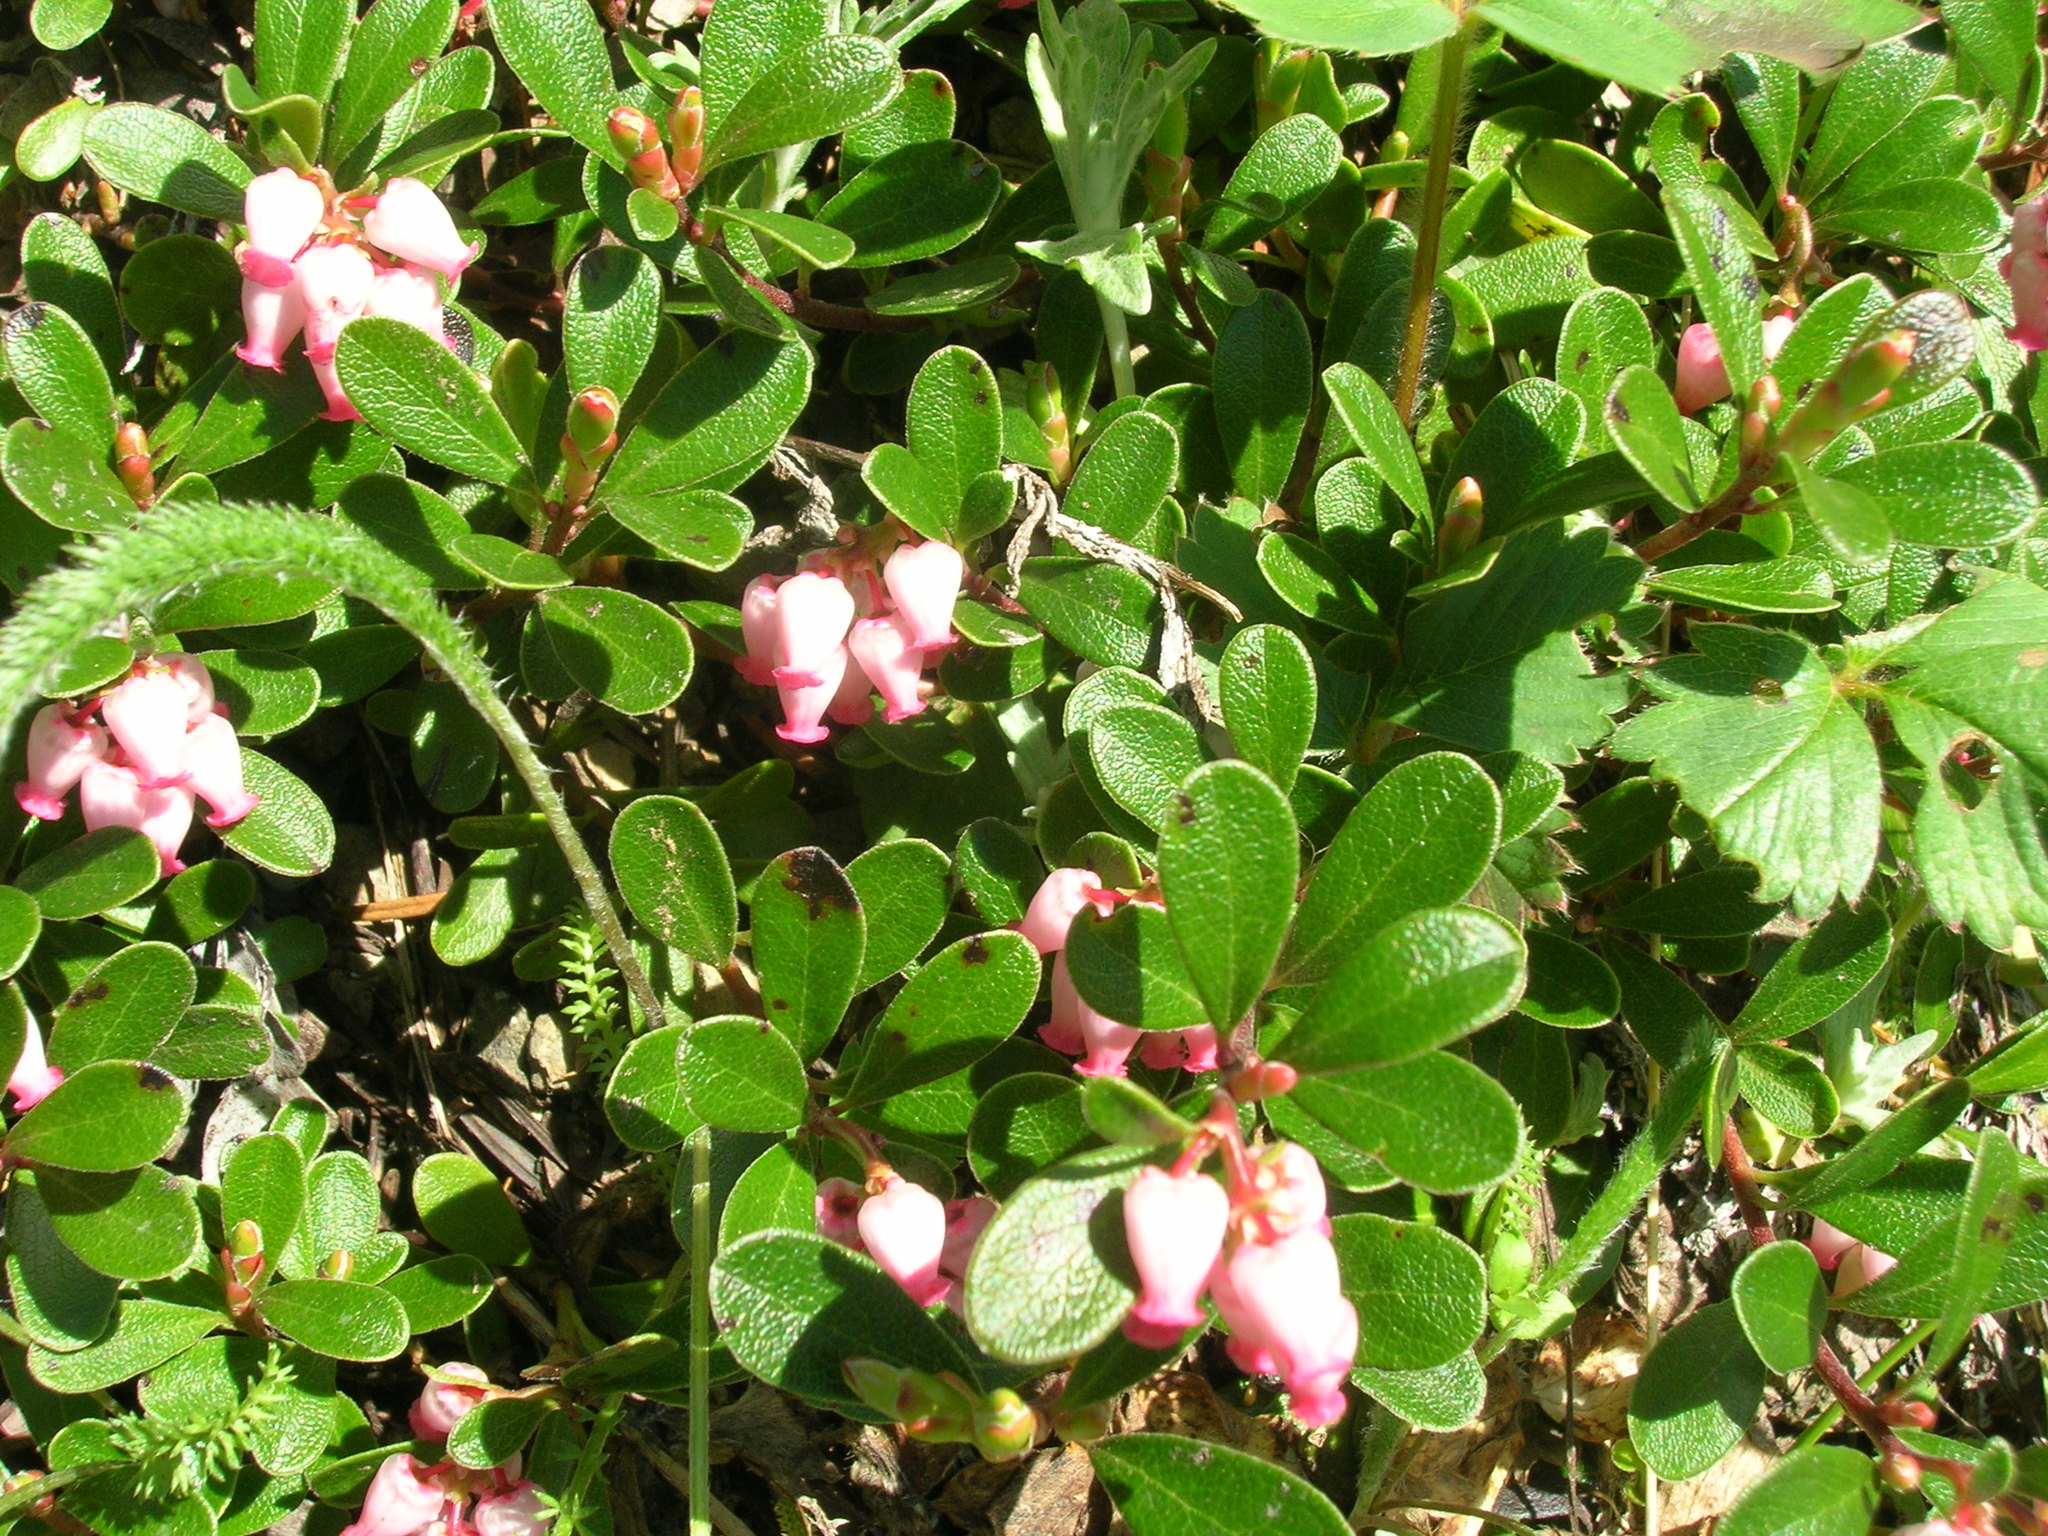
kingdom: Plantae
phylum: Tracheophyta
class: Magnoliopsida
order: Ericales
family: Ericaceae
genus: Arctostaphylos
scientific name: Arctostaphylos uva-ursi
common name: Bearberry
